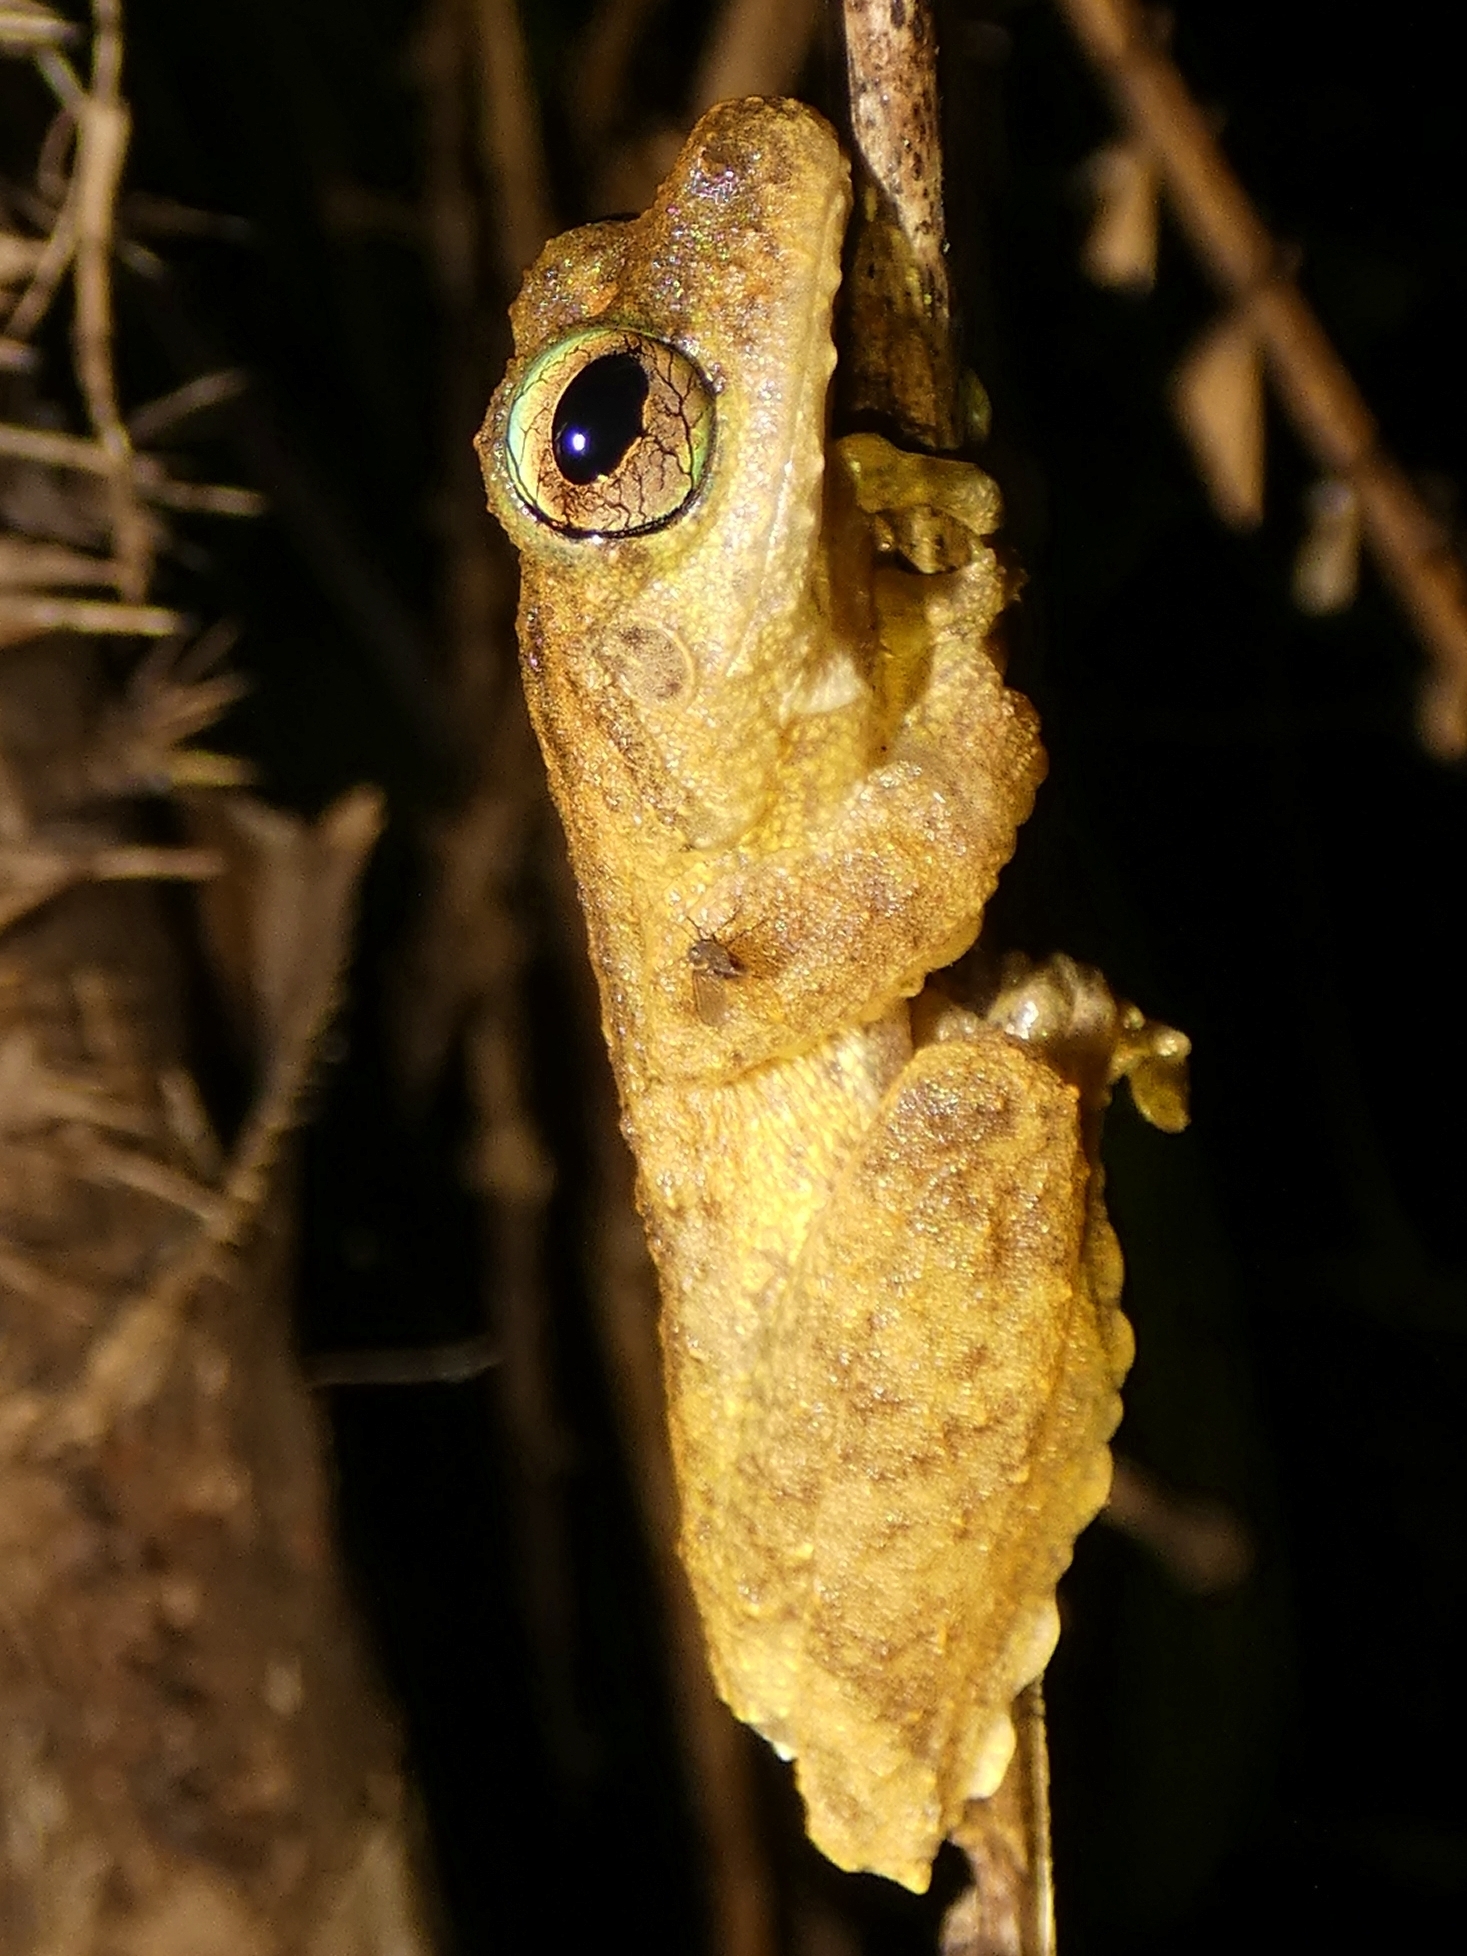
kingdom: Animalia
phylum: Chordata
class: Amphibia
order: Anura
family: Pelodryadidae
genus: Ranoidea
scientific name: Ranoidea serrata
